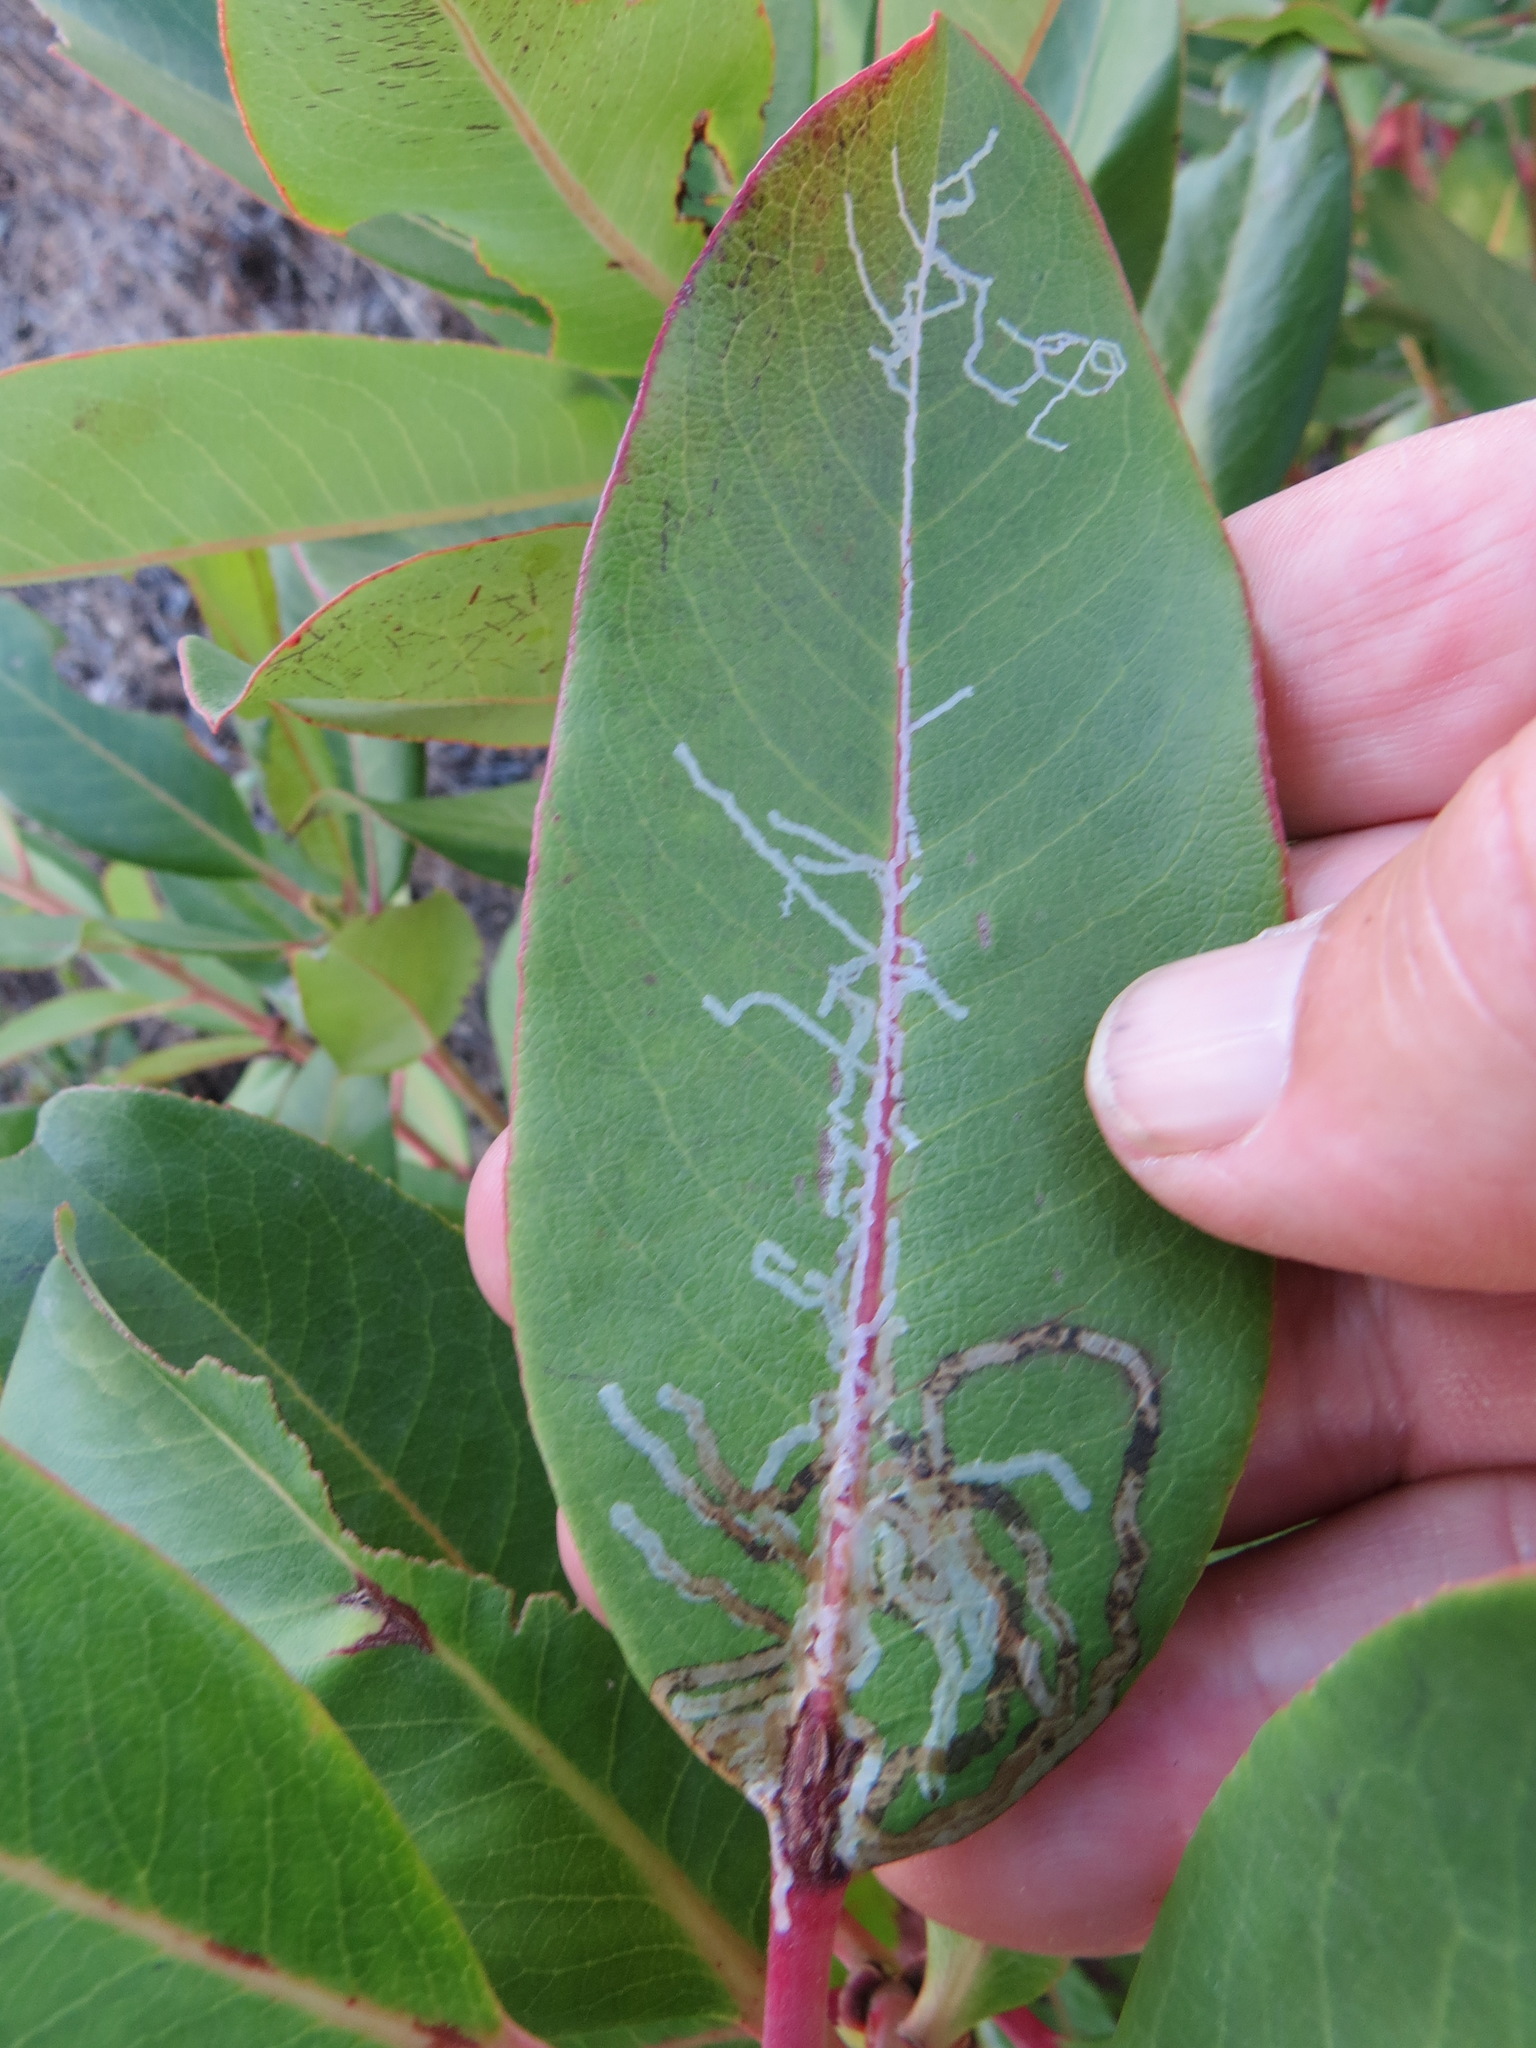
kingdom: Animalia
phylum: Arthropoda
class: Insecta
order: Lepidoptera
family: Gracillariidae
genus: Marmara
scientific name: Marmara arbutiella
